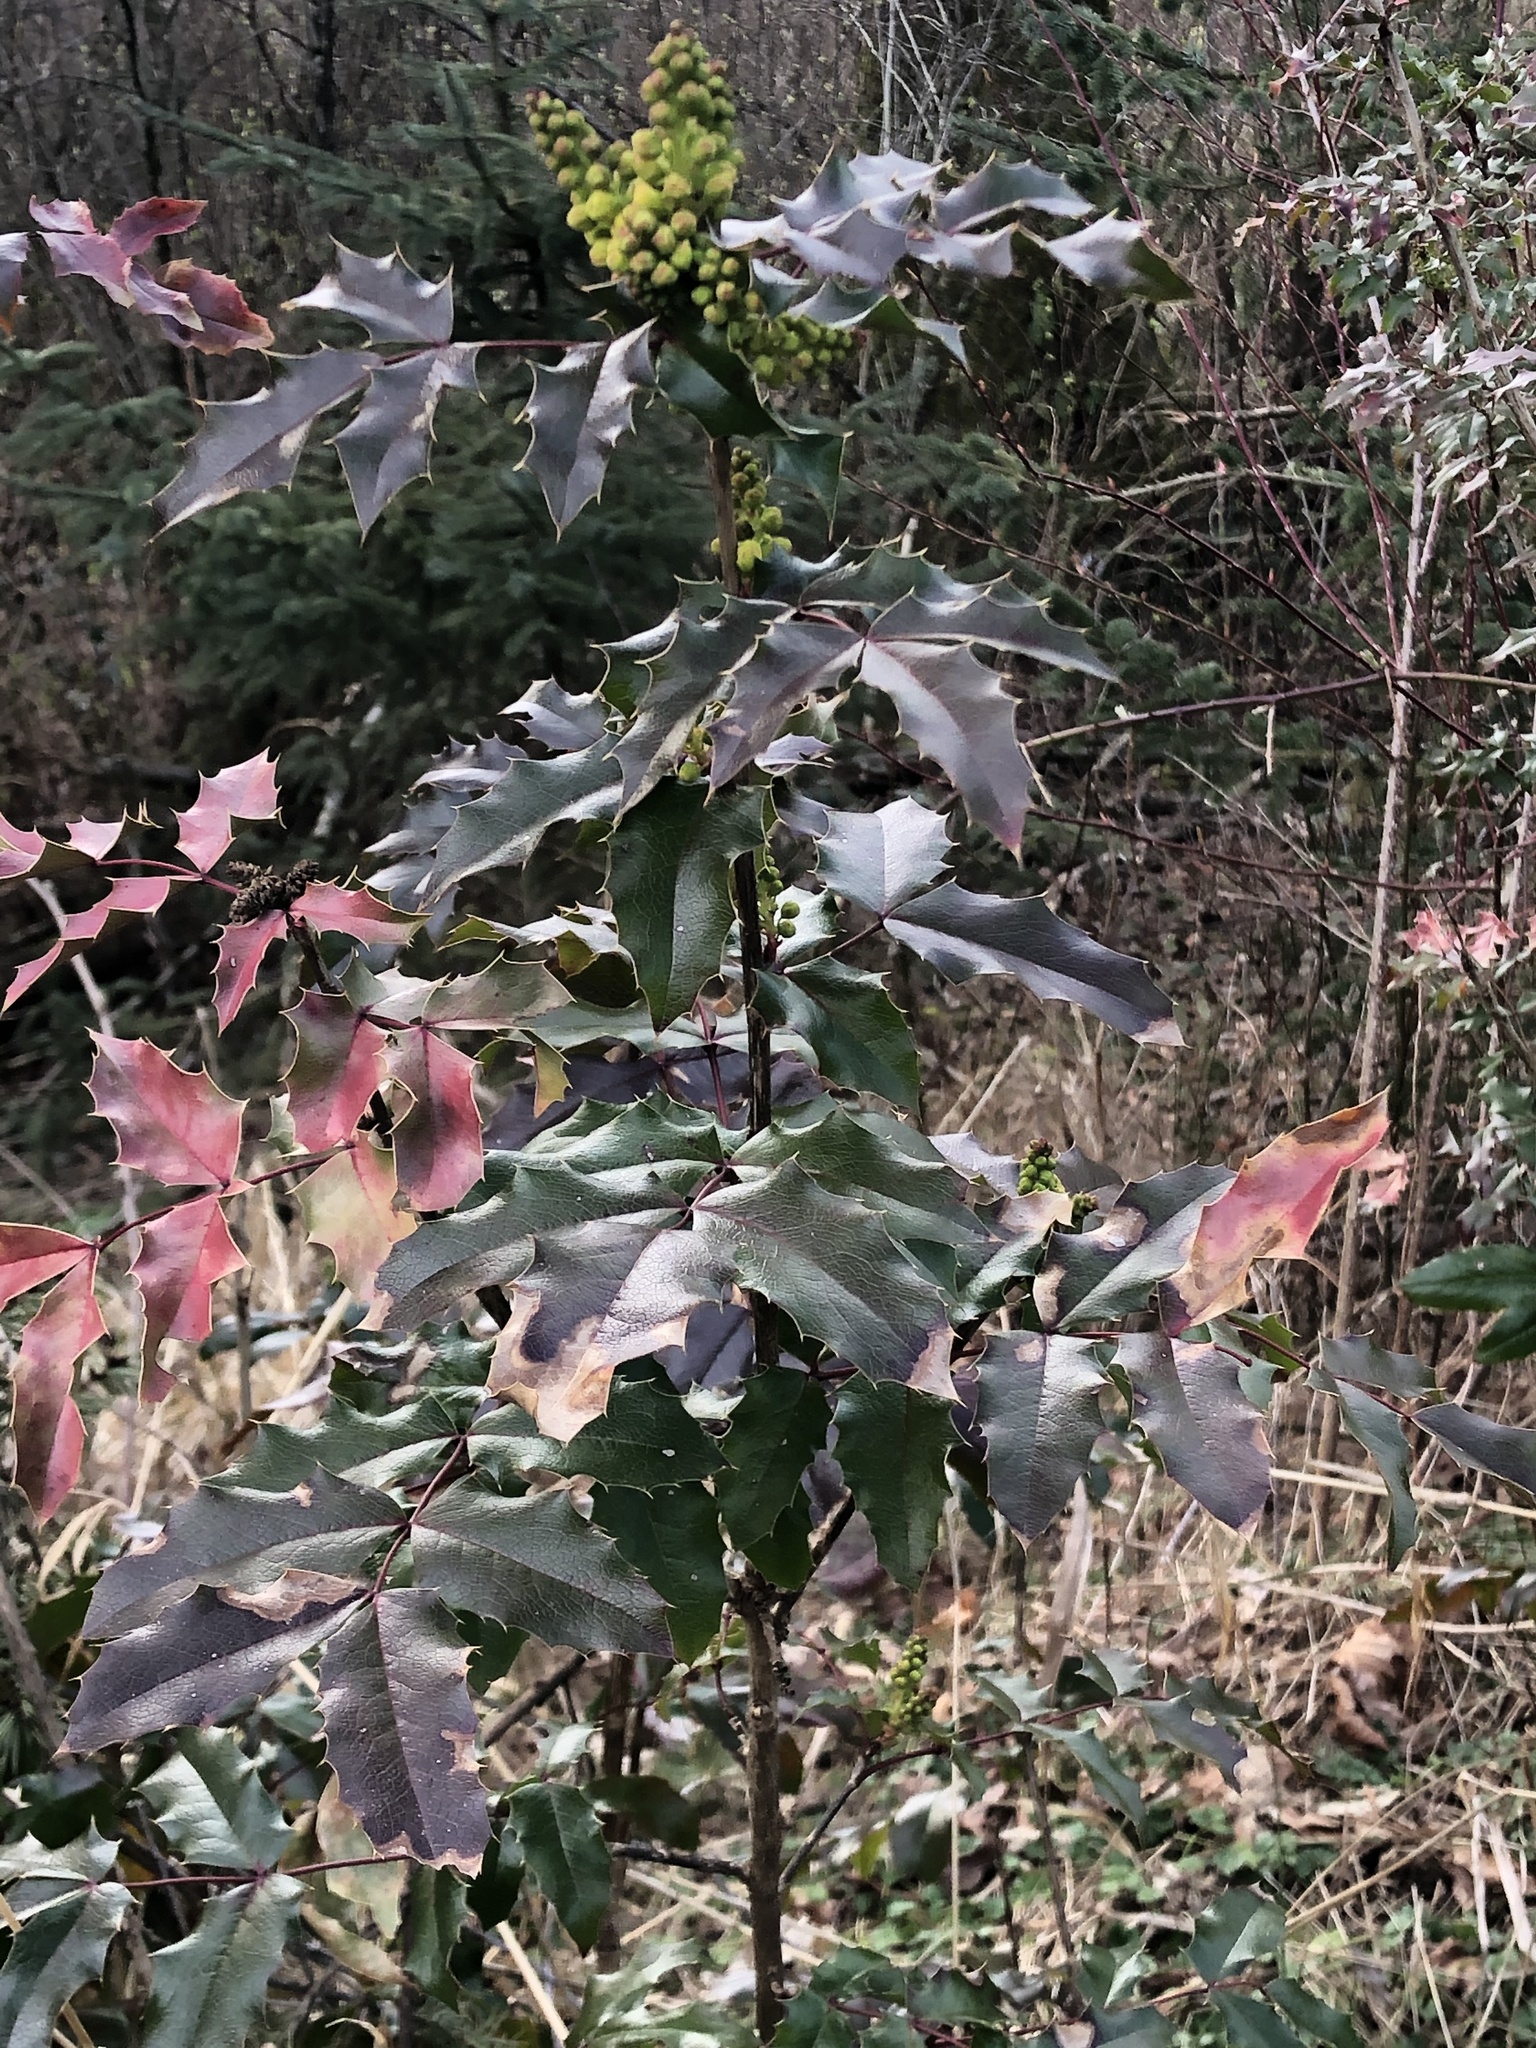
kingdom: Plantae
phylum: Tracheophyta
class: Magnoliopsida
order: Ranunculales
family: Berberidaceae
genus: Mahonia
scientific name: Mahonia aquifolium
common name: Oregon-grape
